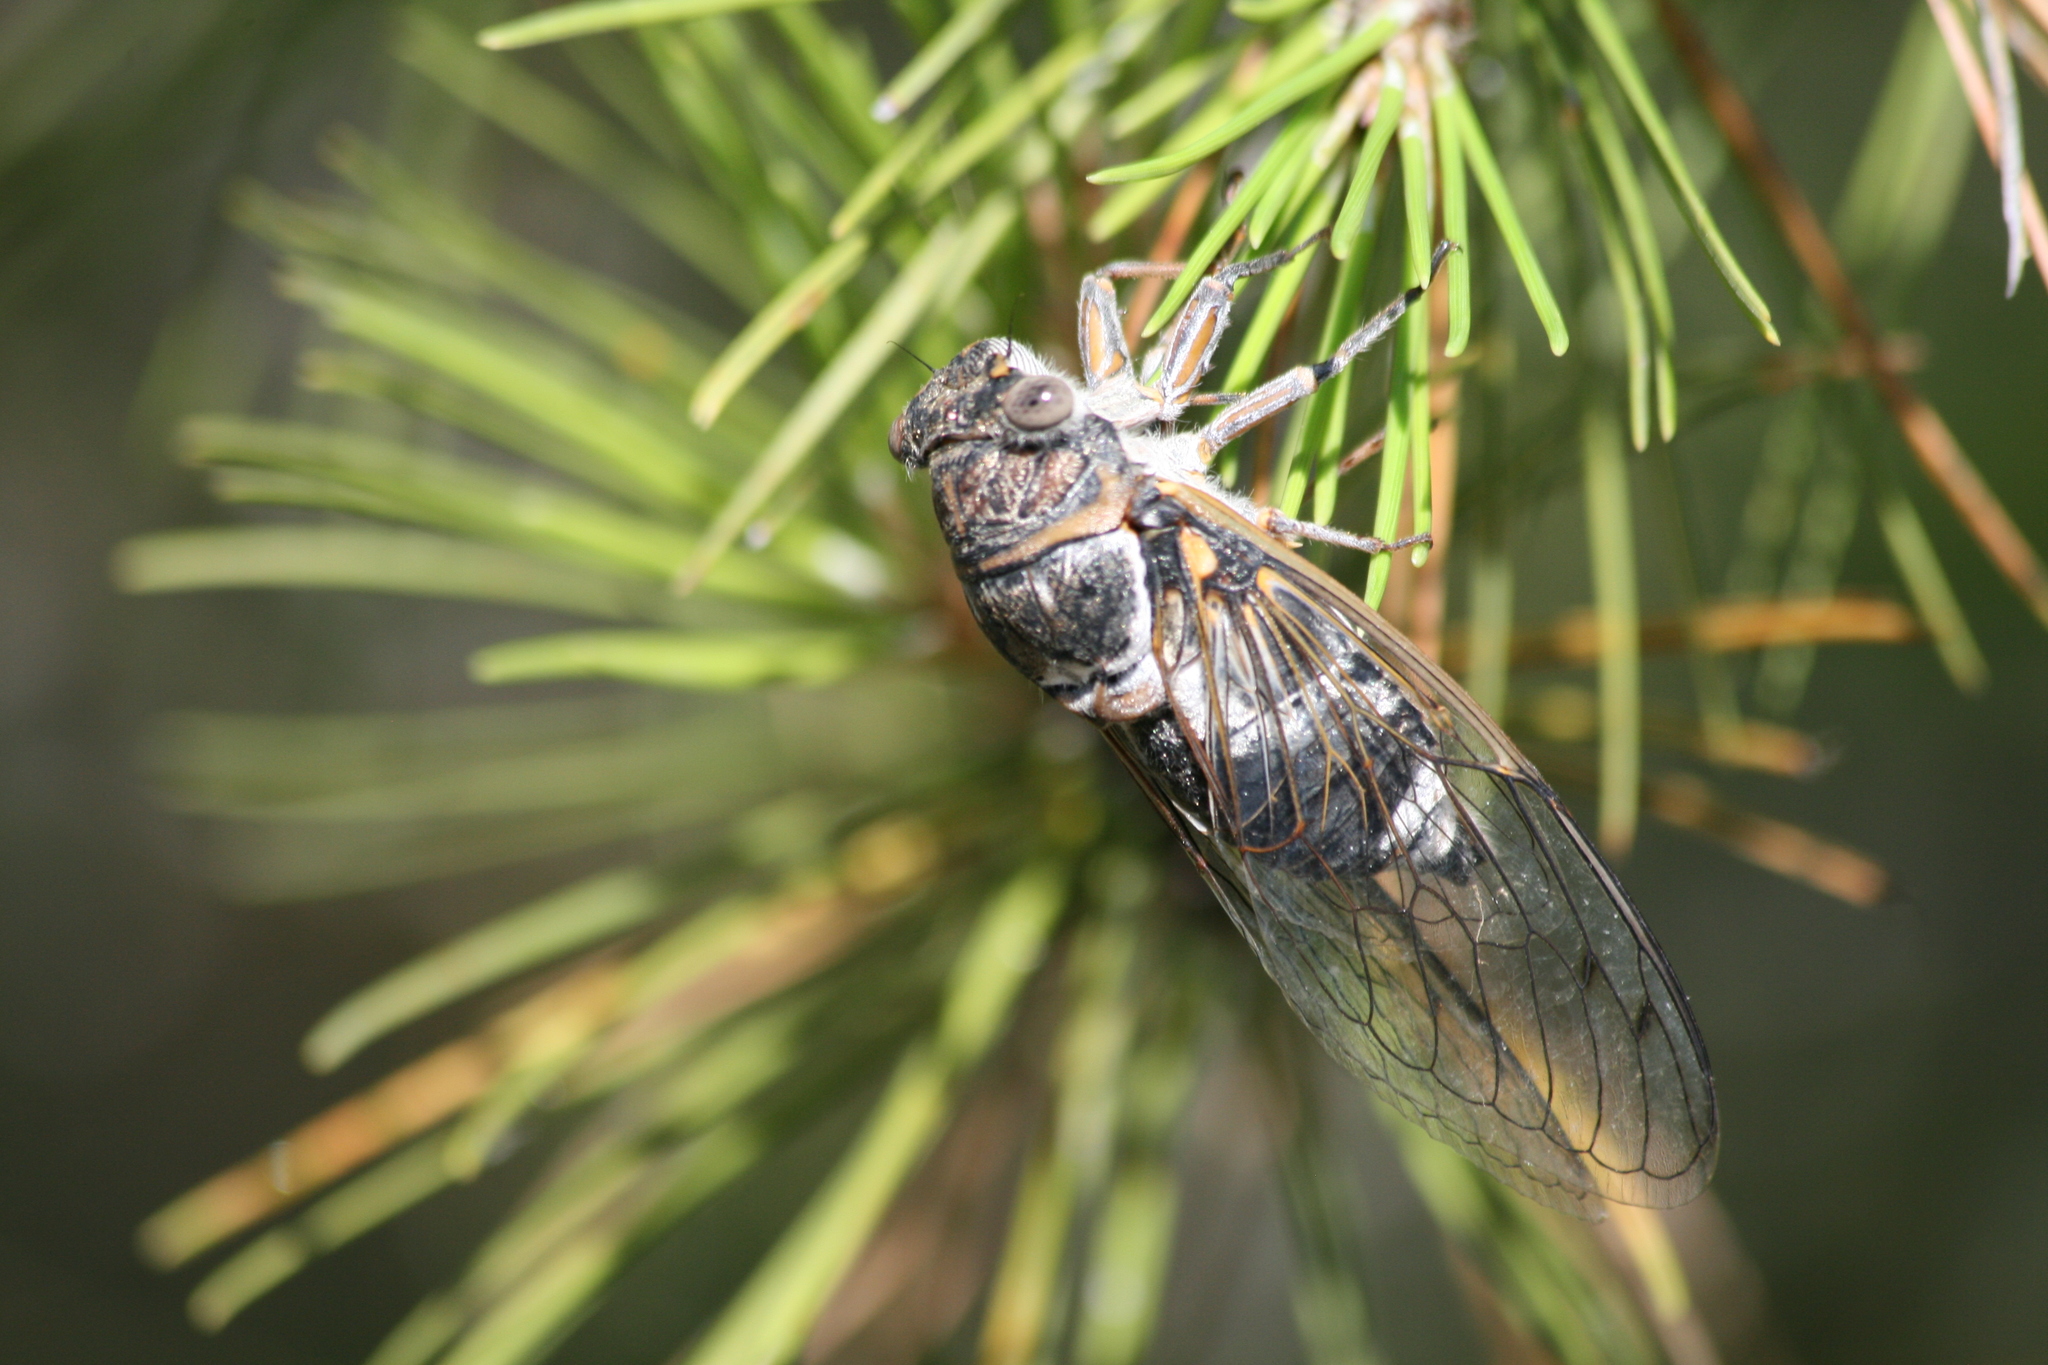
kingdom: Animalia
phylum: Arthropoda
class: Insecta
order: Hemiptera
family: Cicadidae
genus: Lyristes
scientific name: Lyristes plebejus
